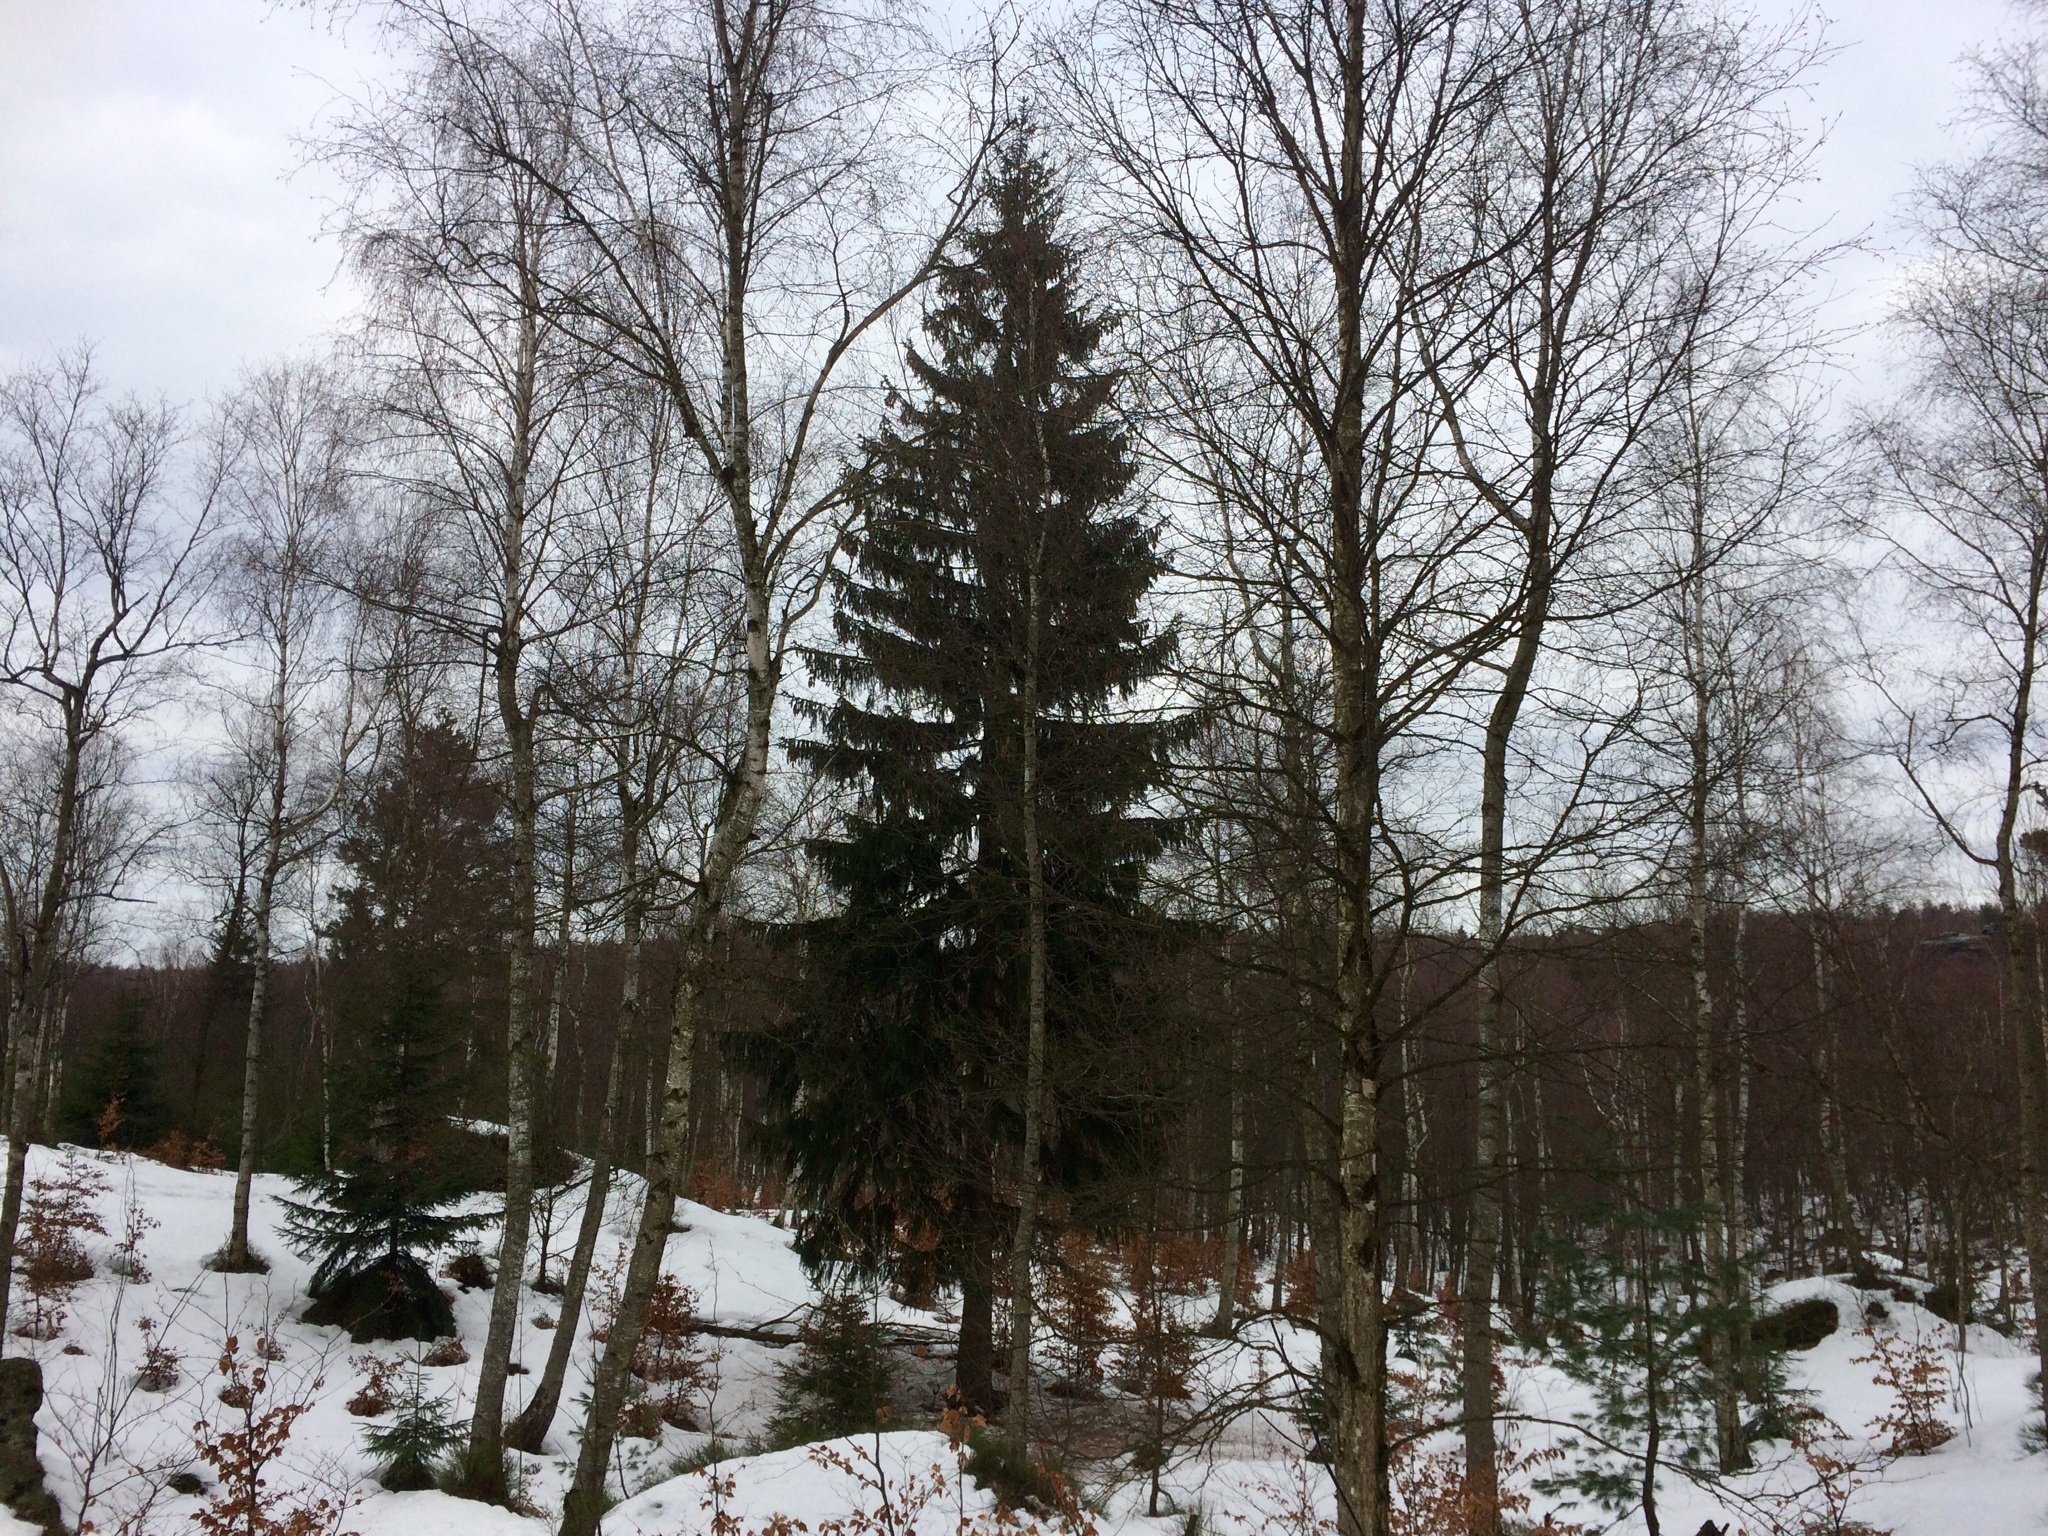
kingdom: Plantae
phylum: Tracheophyta
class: Pinopsida
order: Pinales
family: Pinaceae
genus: Picea
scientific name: Picea abies
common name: Norway spruce
